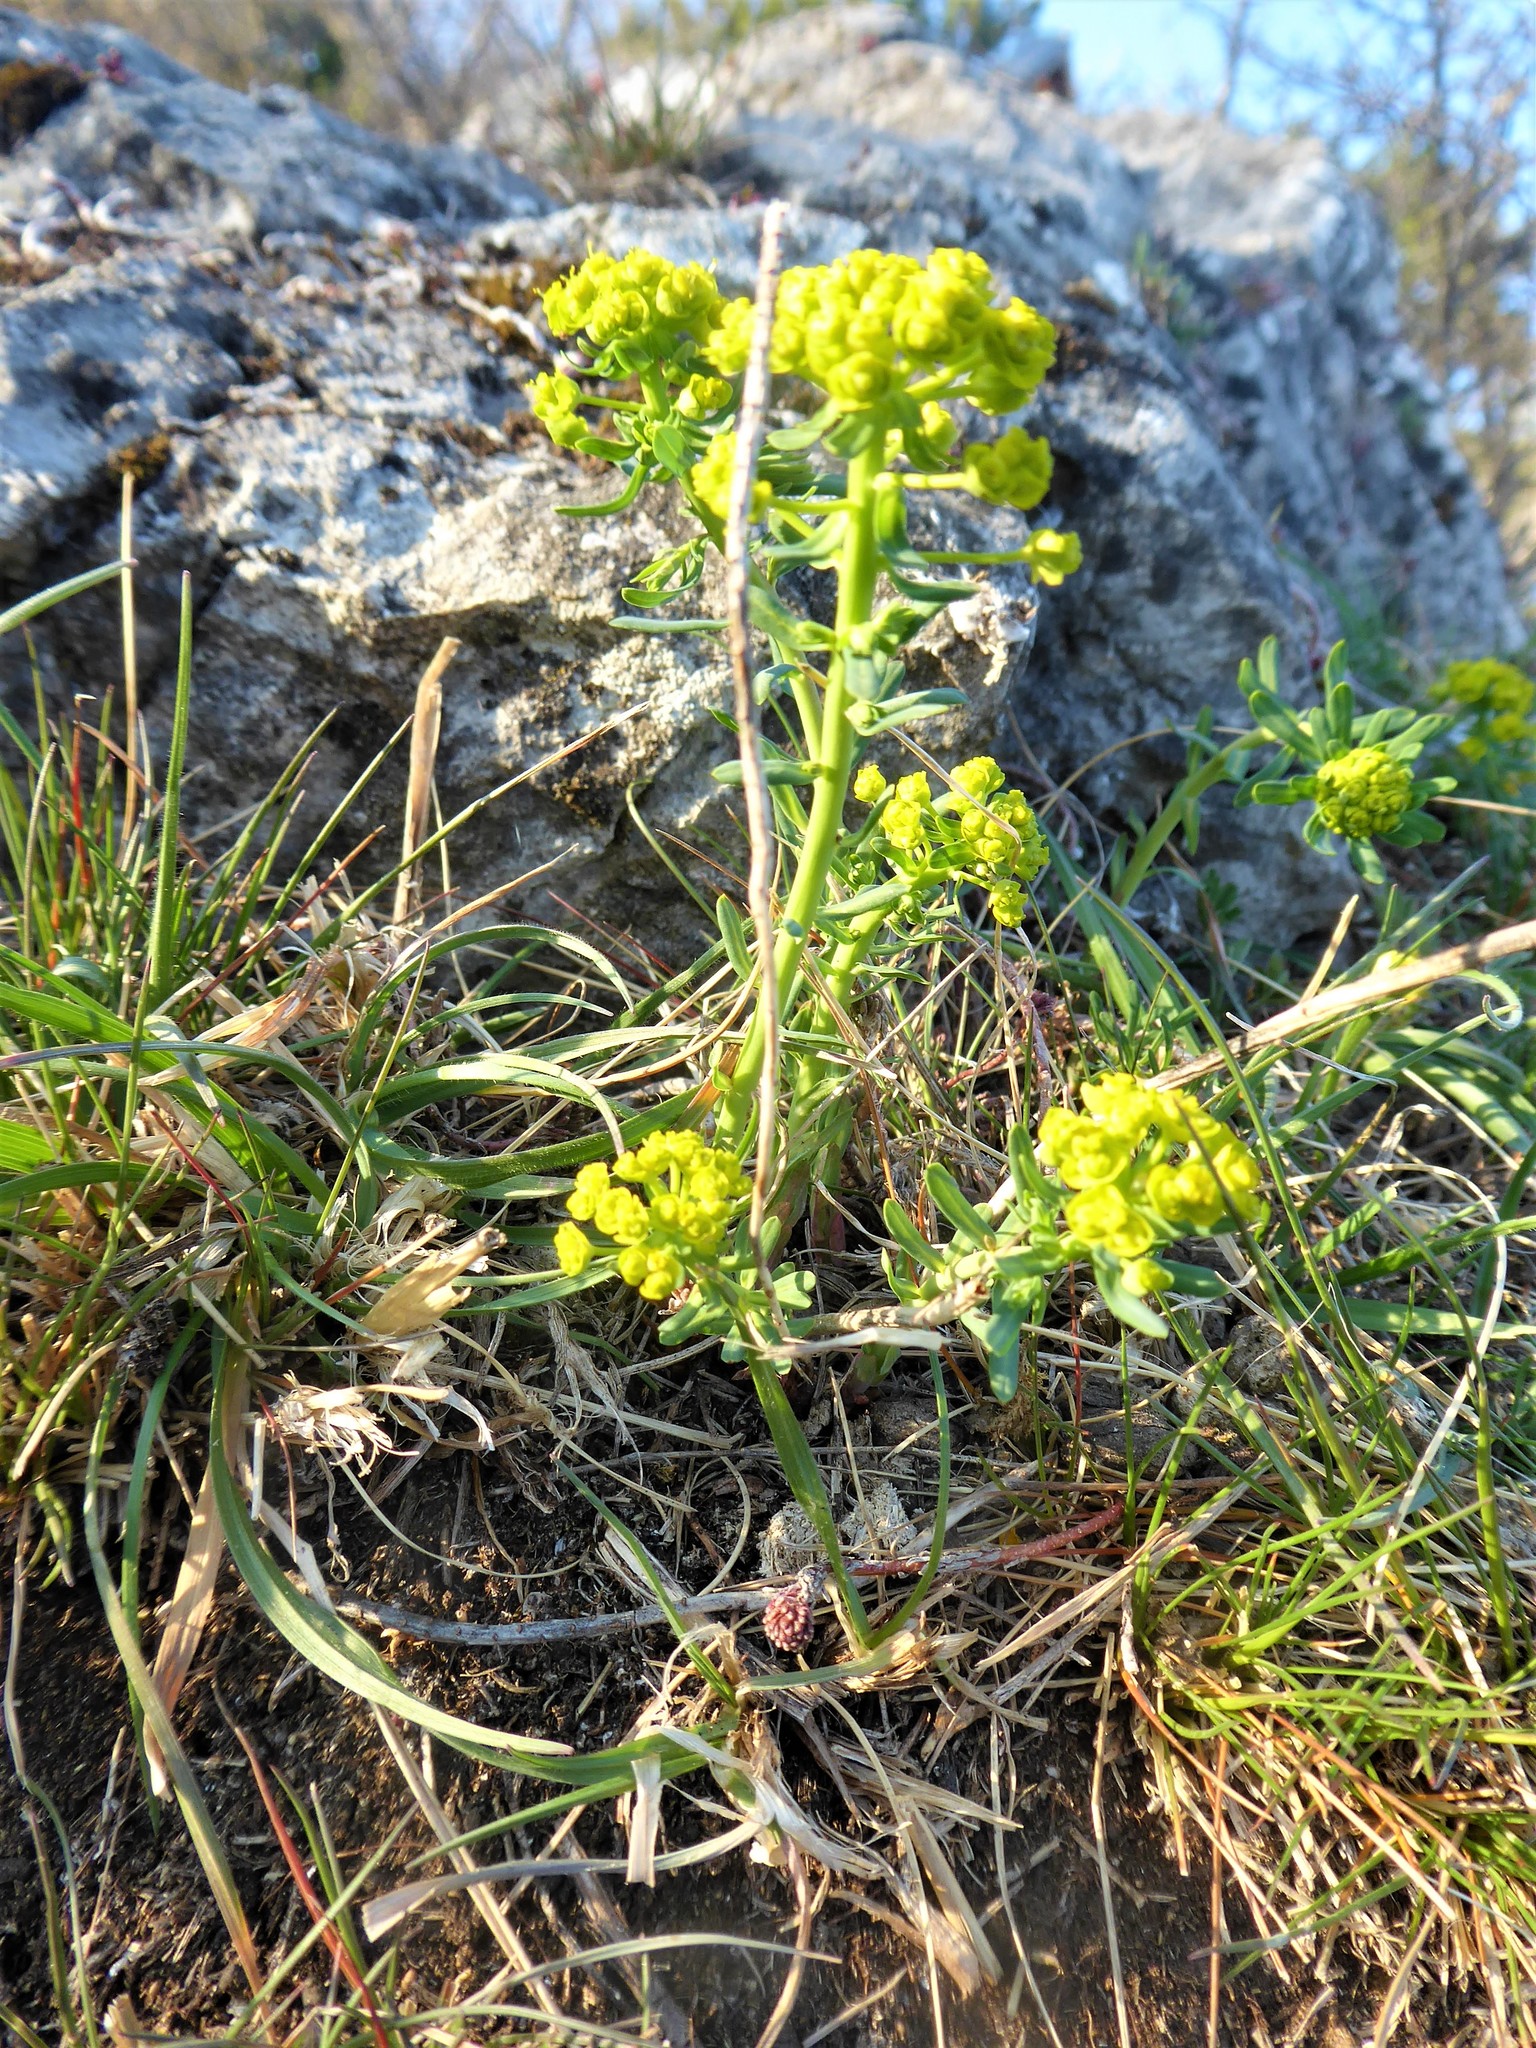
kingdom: Plantae
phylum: Tracheophyta
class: Magnoliopsida
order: Malpighiales
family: Euphorbiaceae
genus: Euphorbia
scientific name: Euphorbia cyparissias
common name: Cypress spurge
